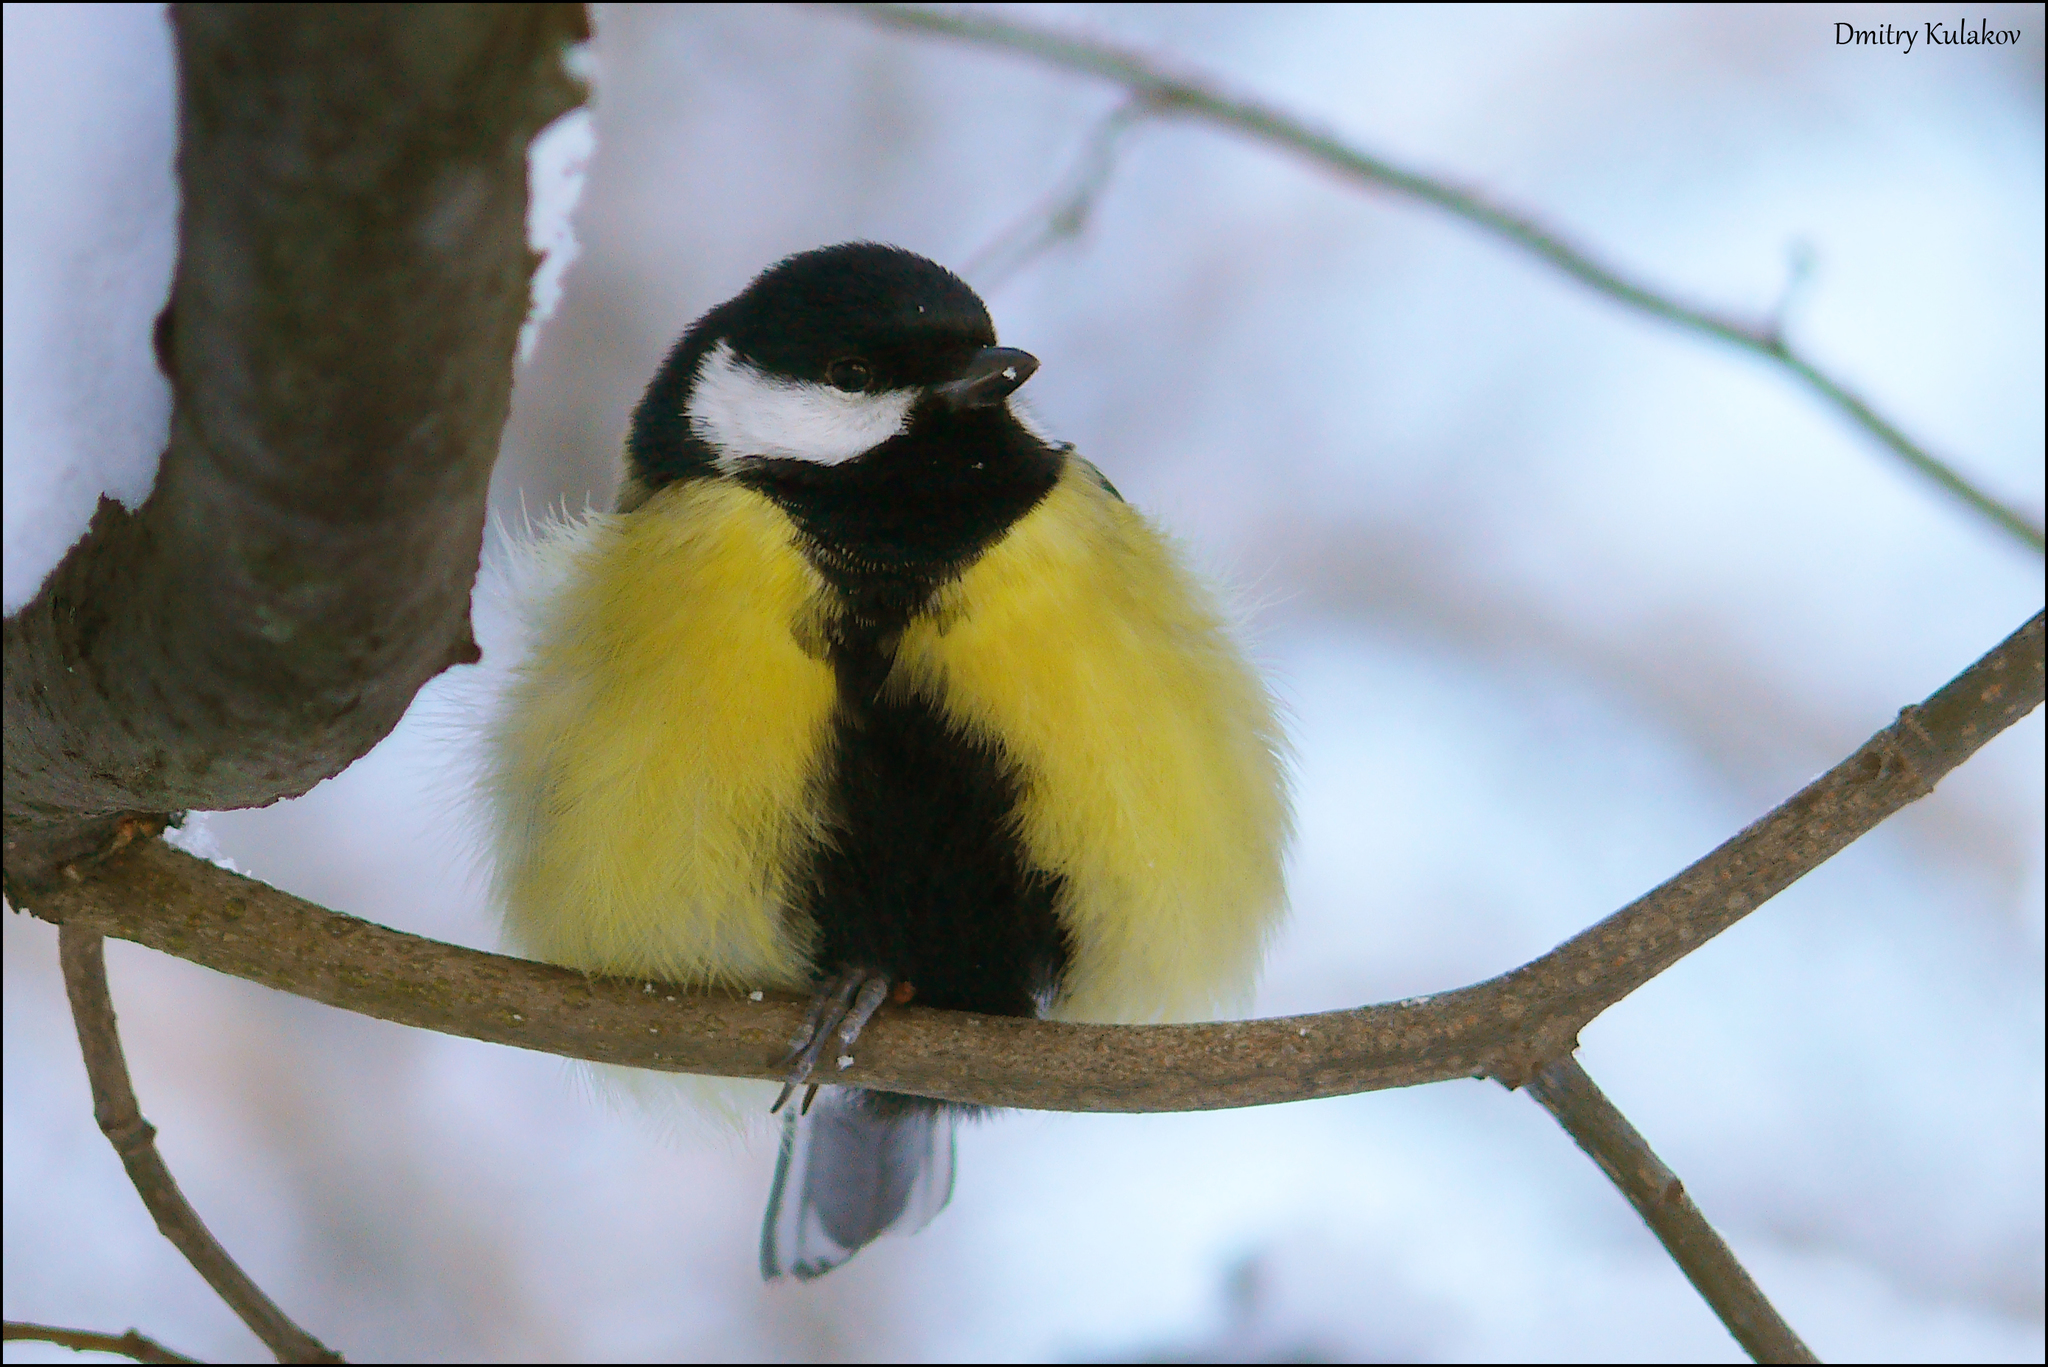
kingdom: Animalia
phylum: Chordata
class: Aves
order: Passeriformes
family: Paridae
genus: Parus
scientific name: Parus major
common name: Great tit
